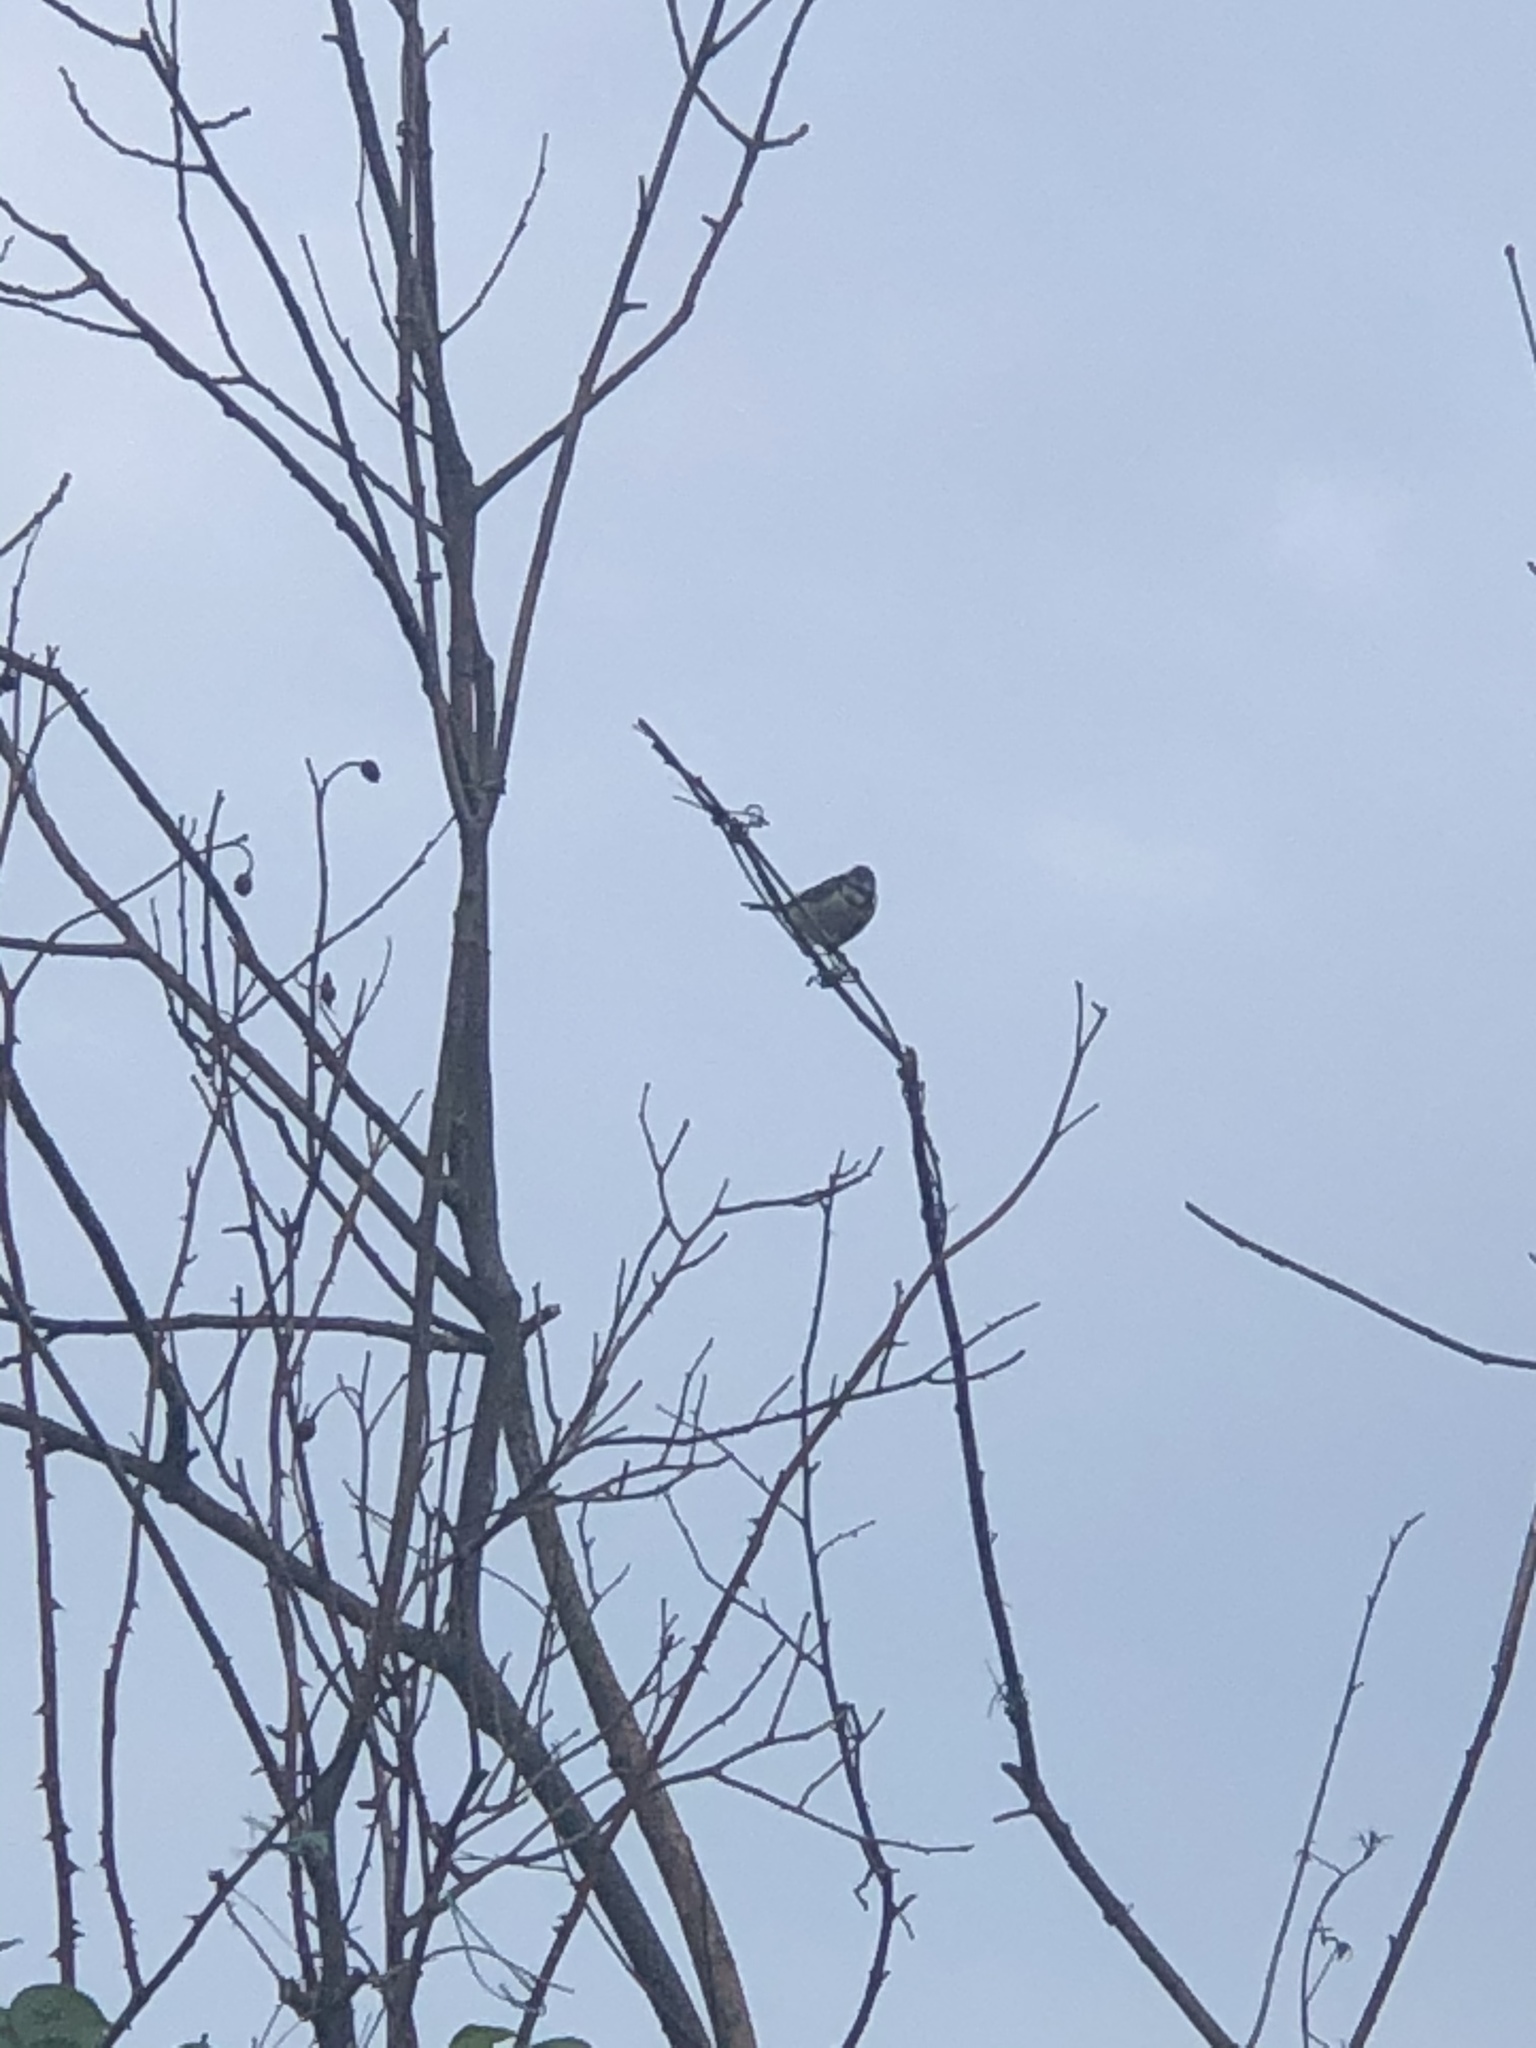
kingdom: Animalia
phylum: Chordata
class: Aves
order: Passeriformes
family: Paridae
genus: Cyanistes
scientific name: Cyanistes caeruleus
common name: Eurasian blue tit
